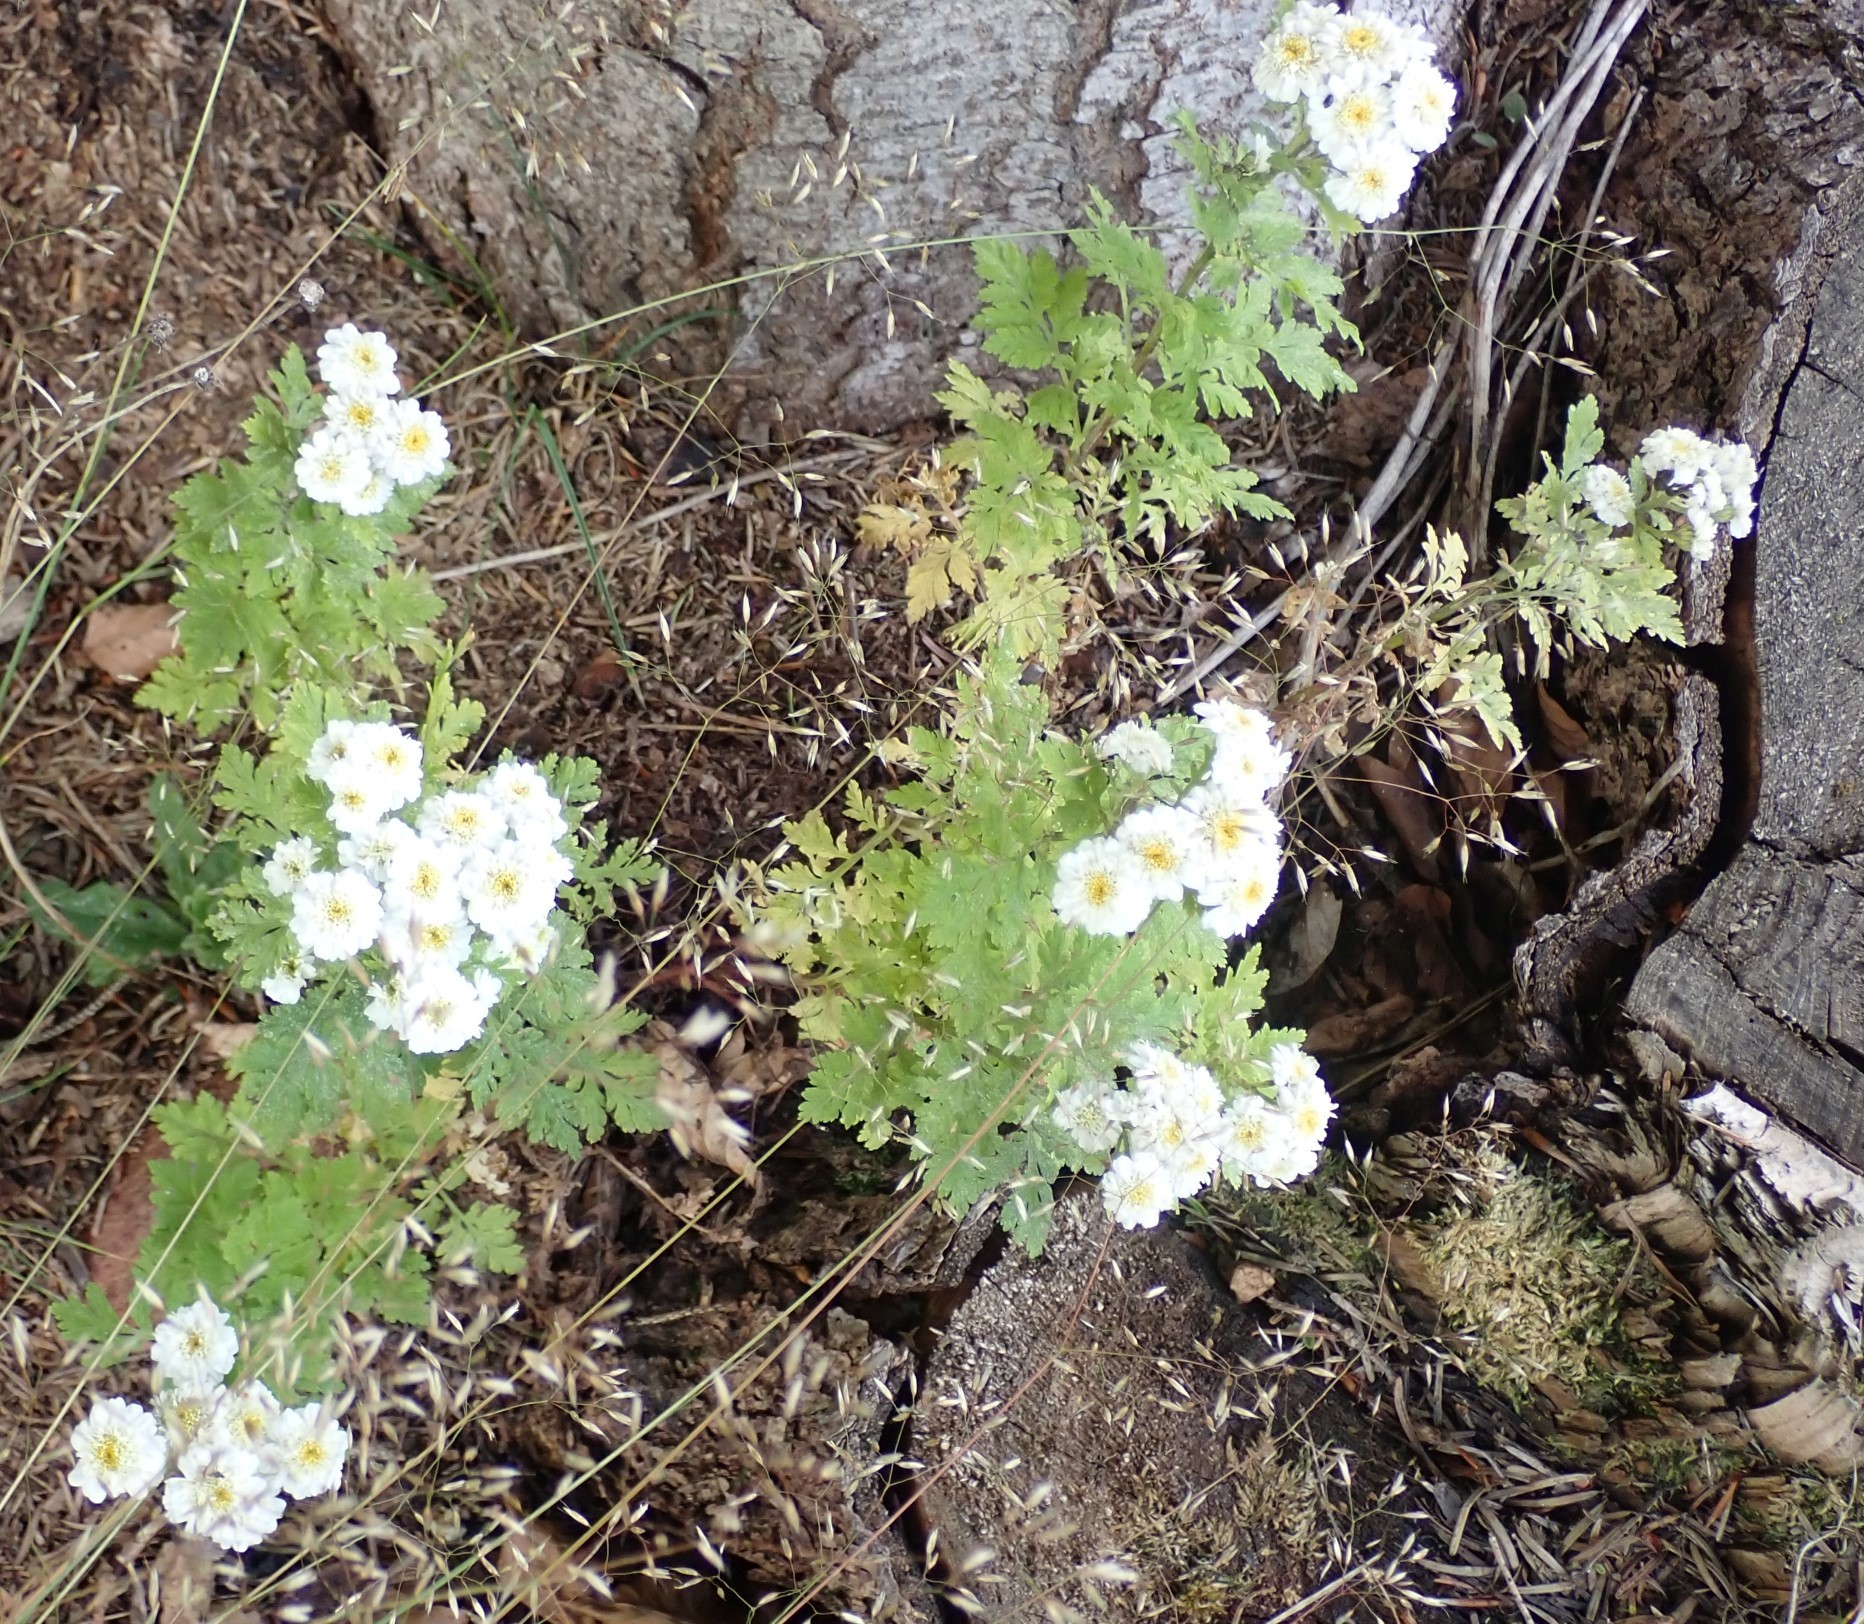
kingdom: Plantae
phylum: Tracheophyta
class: Magnoliopsida
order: Asterales
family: Asteraceae
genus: Tanacetum
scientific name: Tanacetum parthenium
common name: Feverfew
